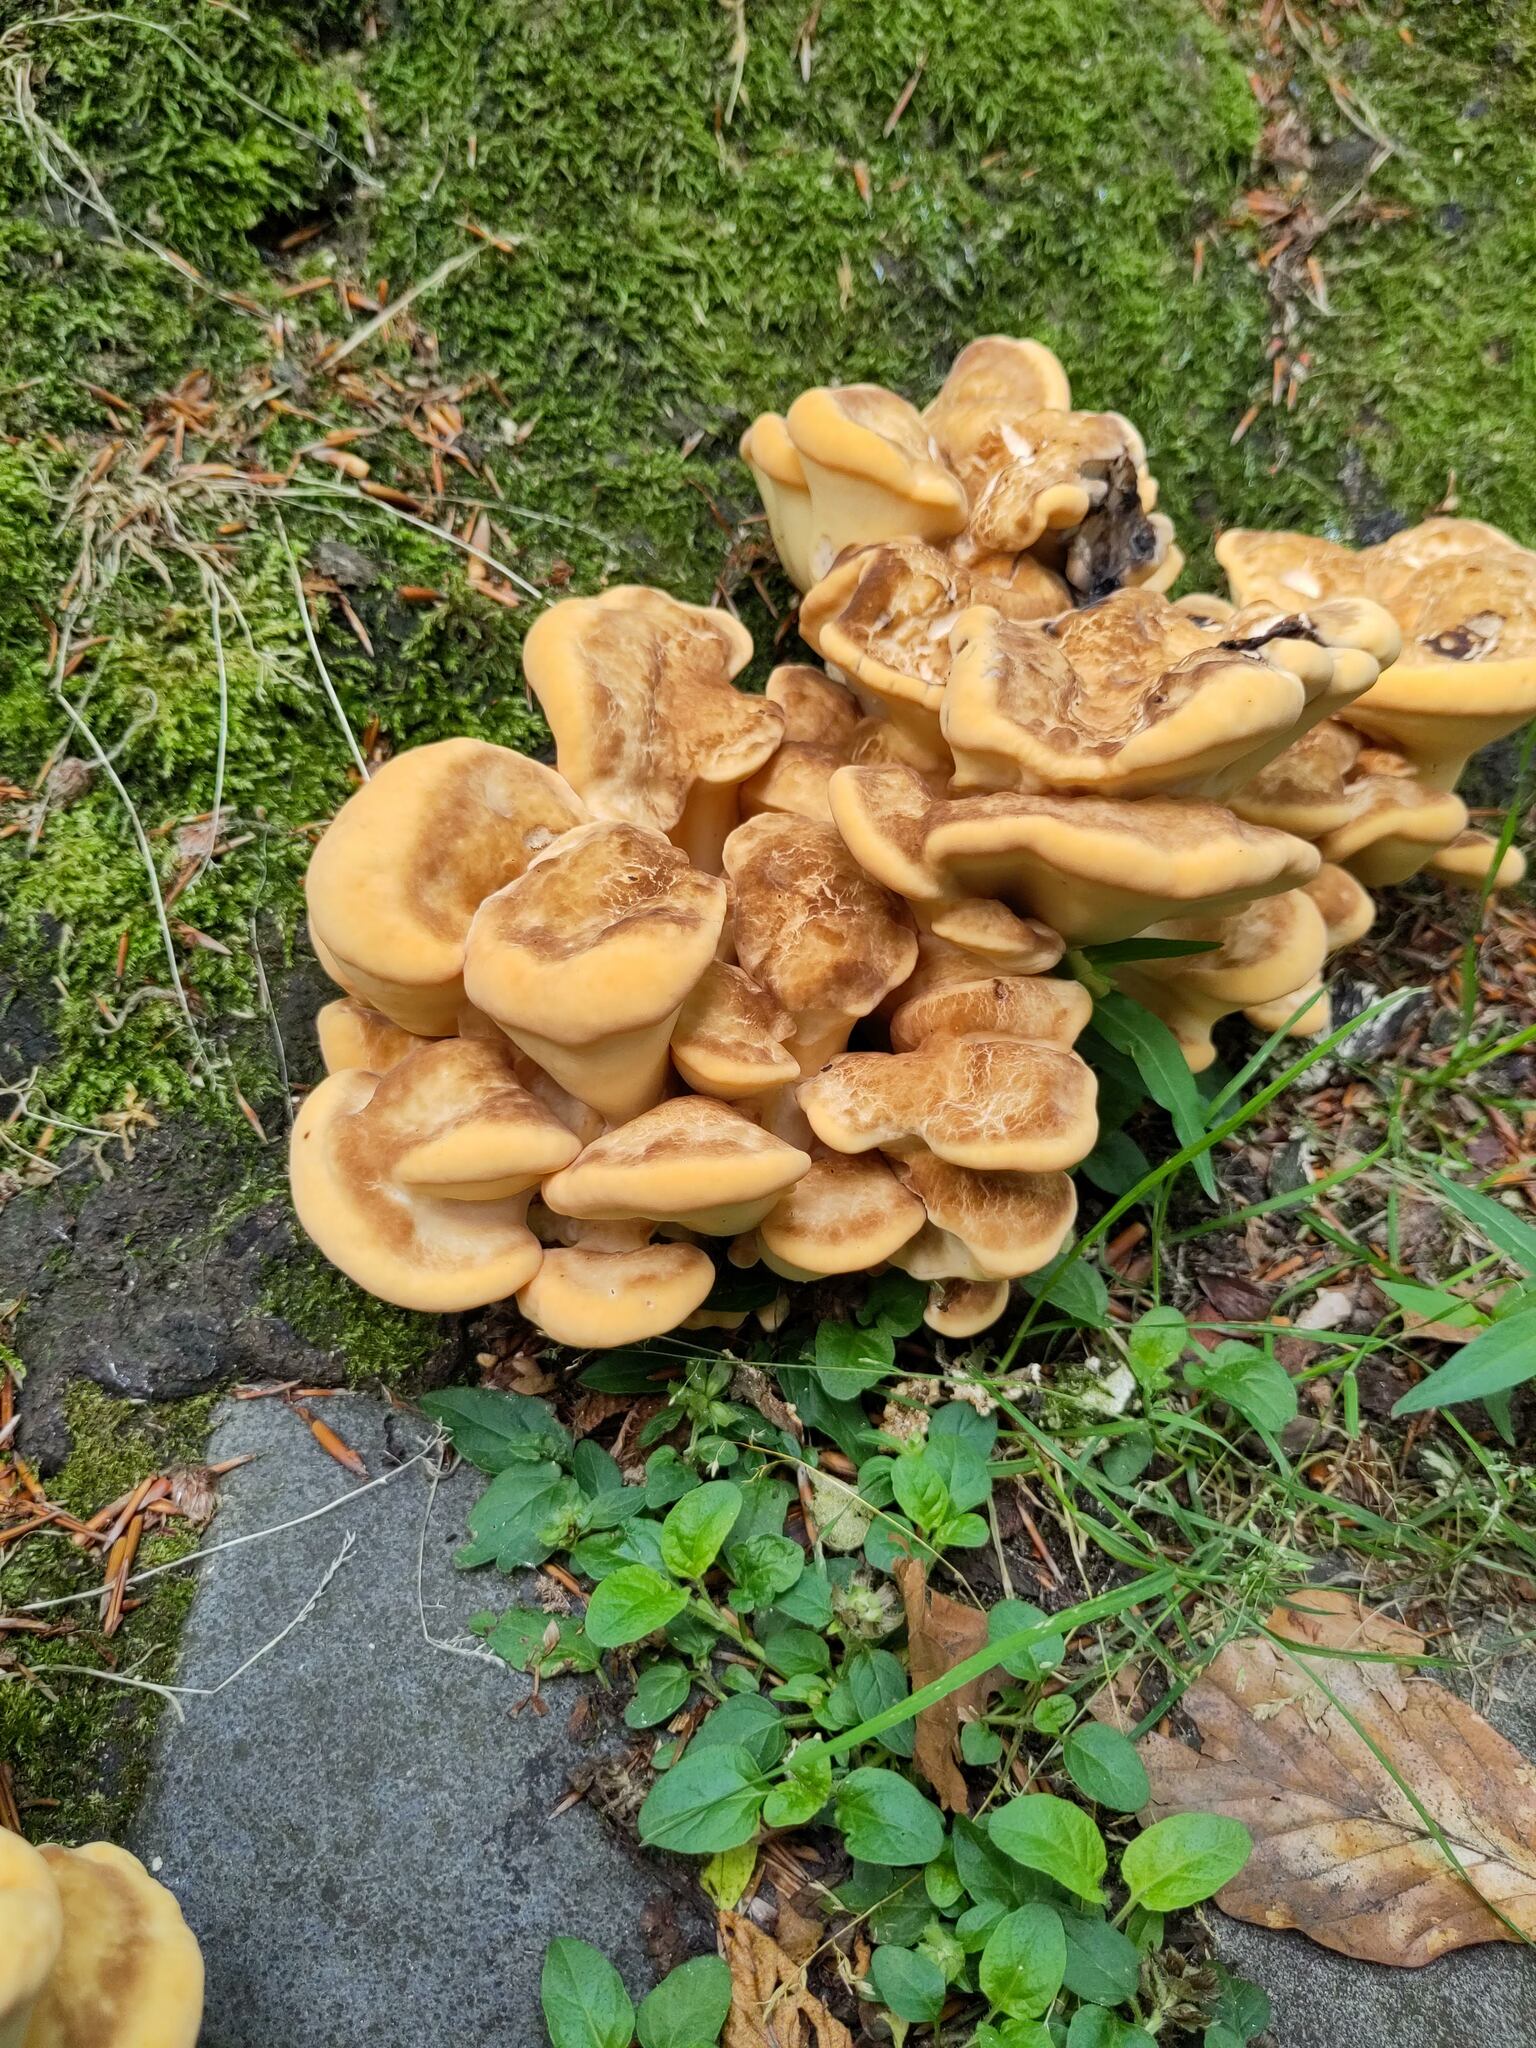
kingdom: Fungi
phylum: Basidiomycota
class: Agaricomycetes
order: Polyporales
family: Meripilaceae
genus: Meripilus
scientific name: Meripilus giganteus
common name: Giant polypore
